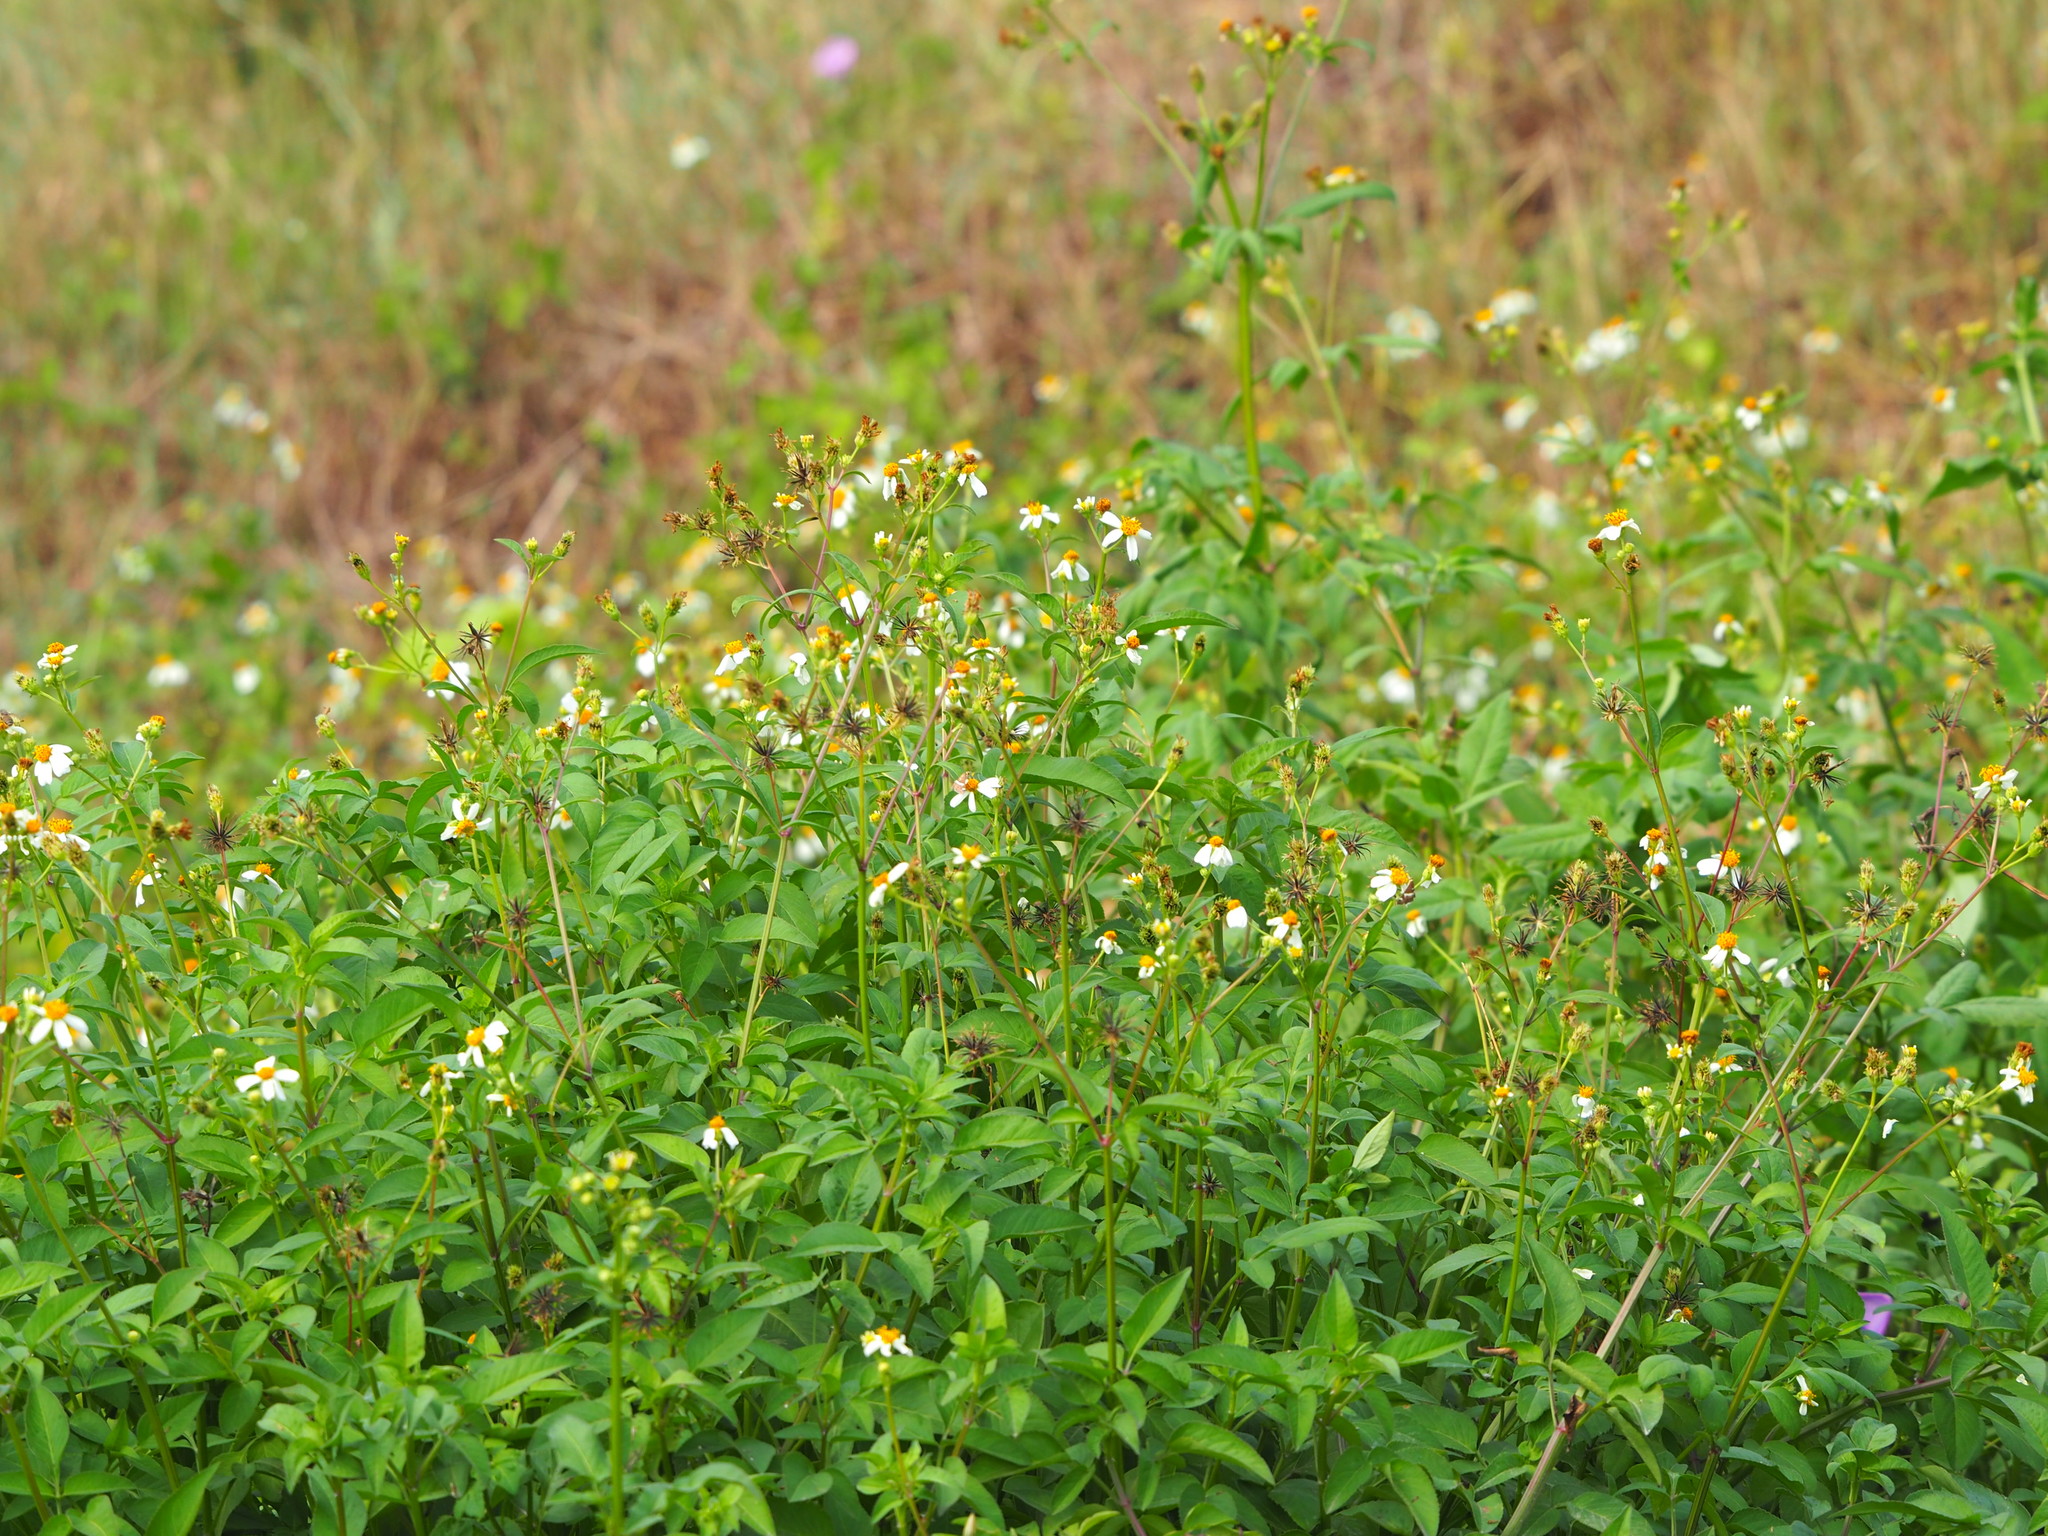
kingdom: Plantae
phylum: Tracheophyta
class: Magnoliopsida
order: Asterales
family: Asteraceae
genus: Bidens
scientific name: Bidens alba
